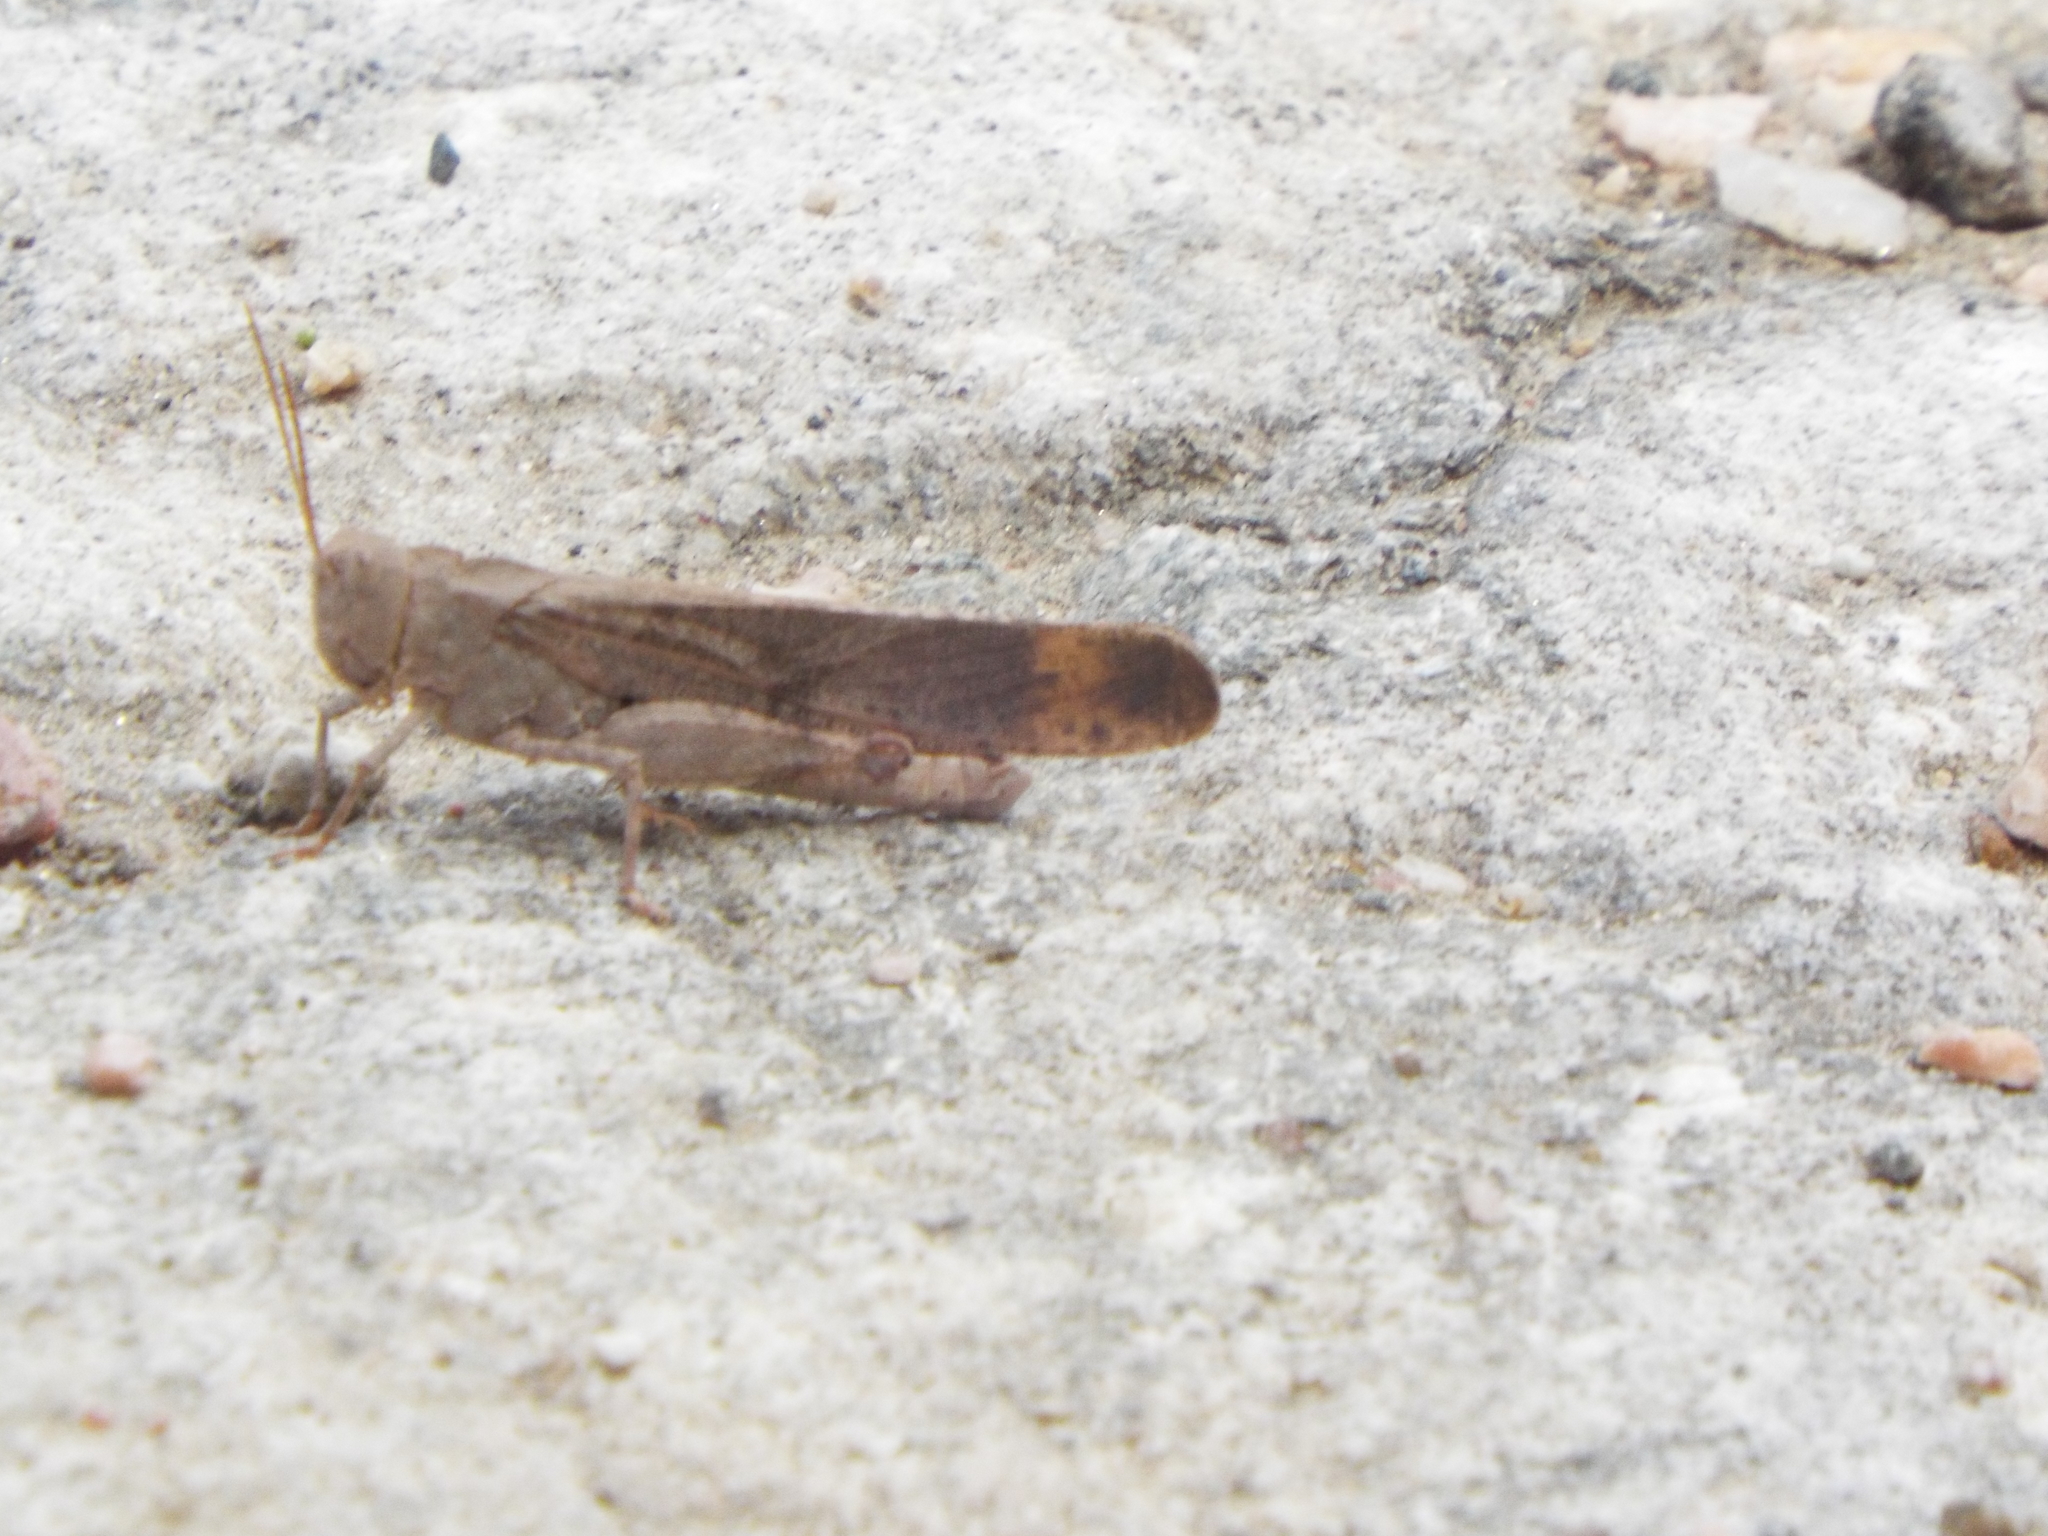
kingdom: Animalia
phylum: Arthropoda
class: Insecta
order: Orthoptera
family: Acrididae
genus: Dissosteira
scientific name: Dissosteira carolina
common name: Carolina grasshopper
